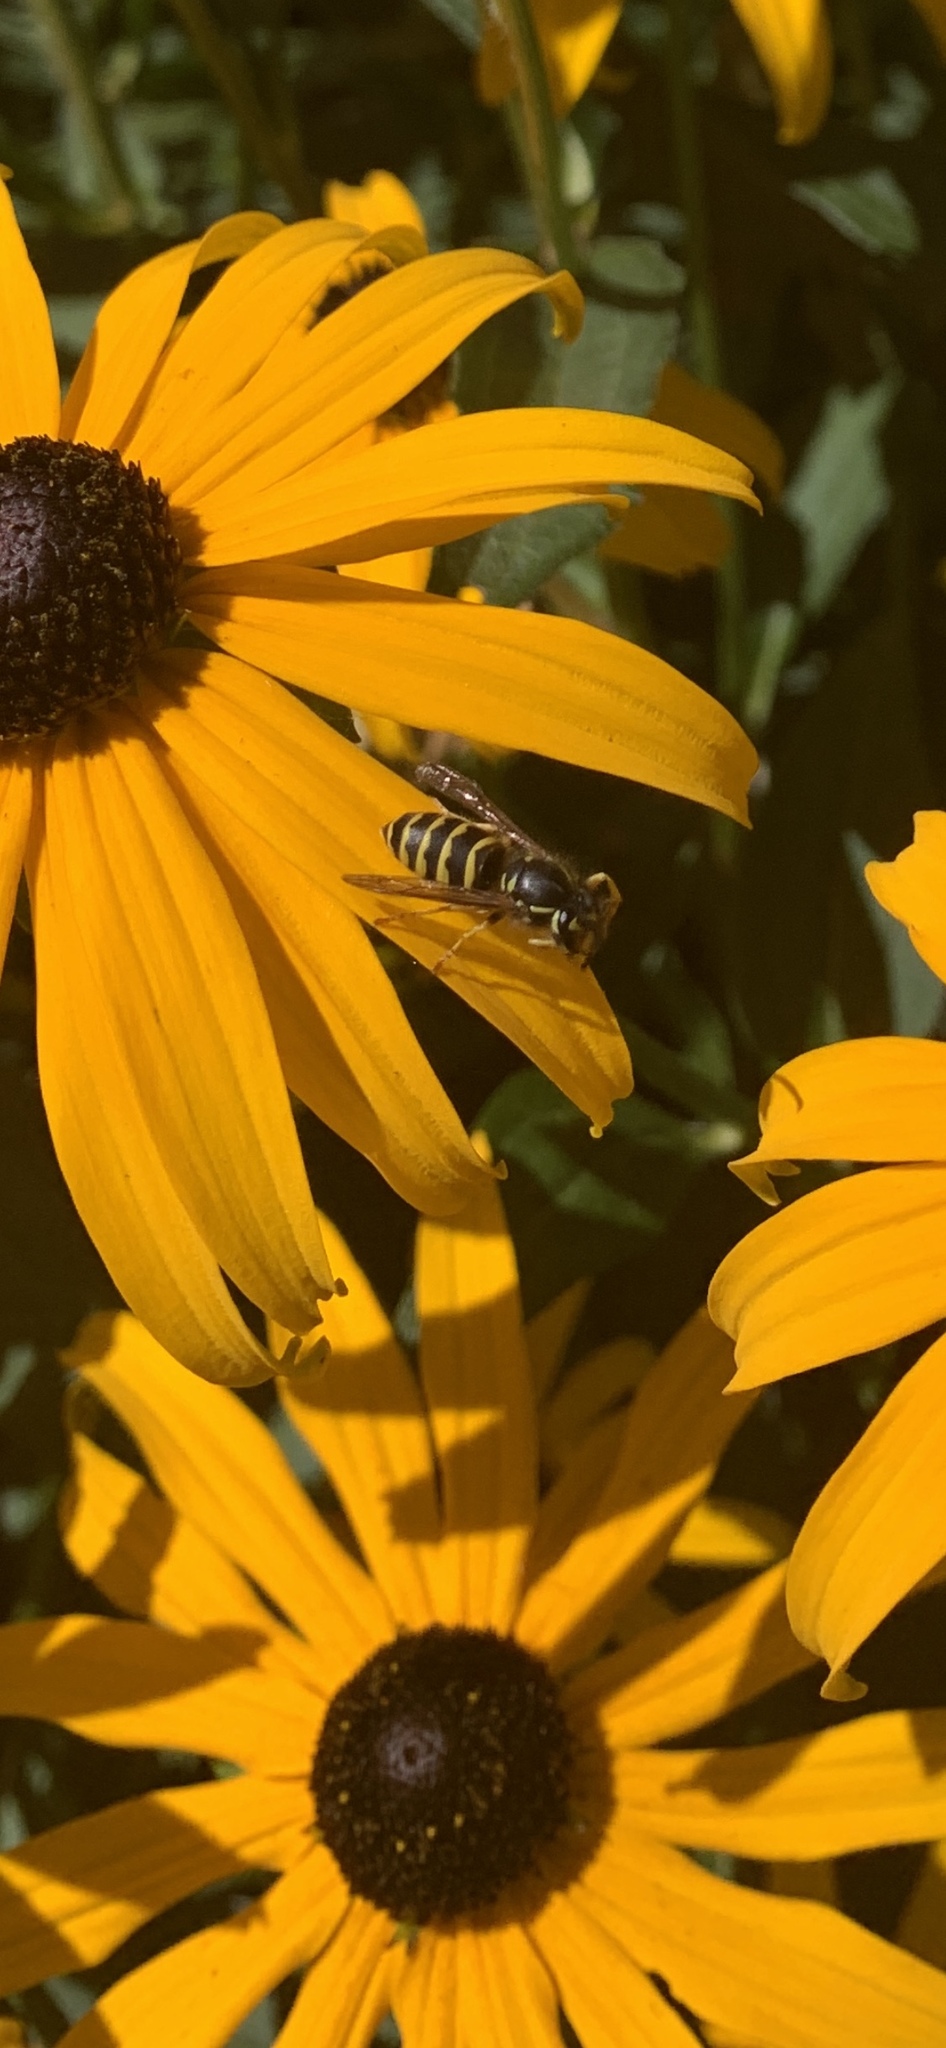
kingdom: Animalia
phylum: Arthropoda
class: Insecta
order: Hymenoptera
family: Vespidae
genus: Vespula
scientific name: Vespula alascensis
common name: Alaska yellowjacket
